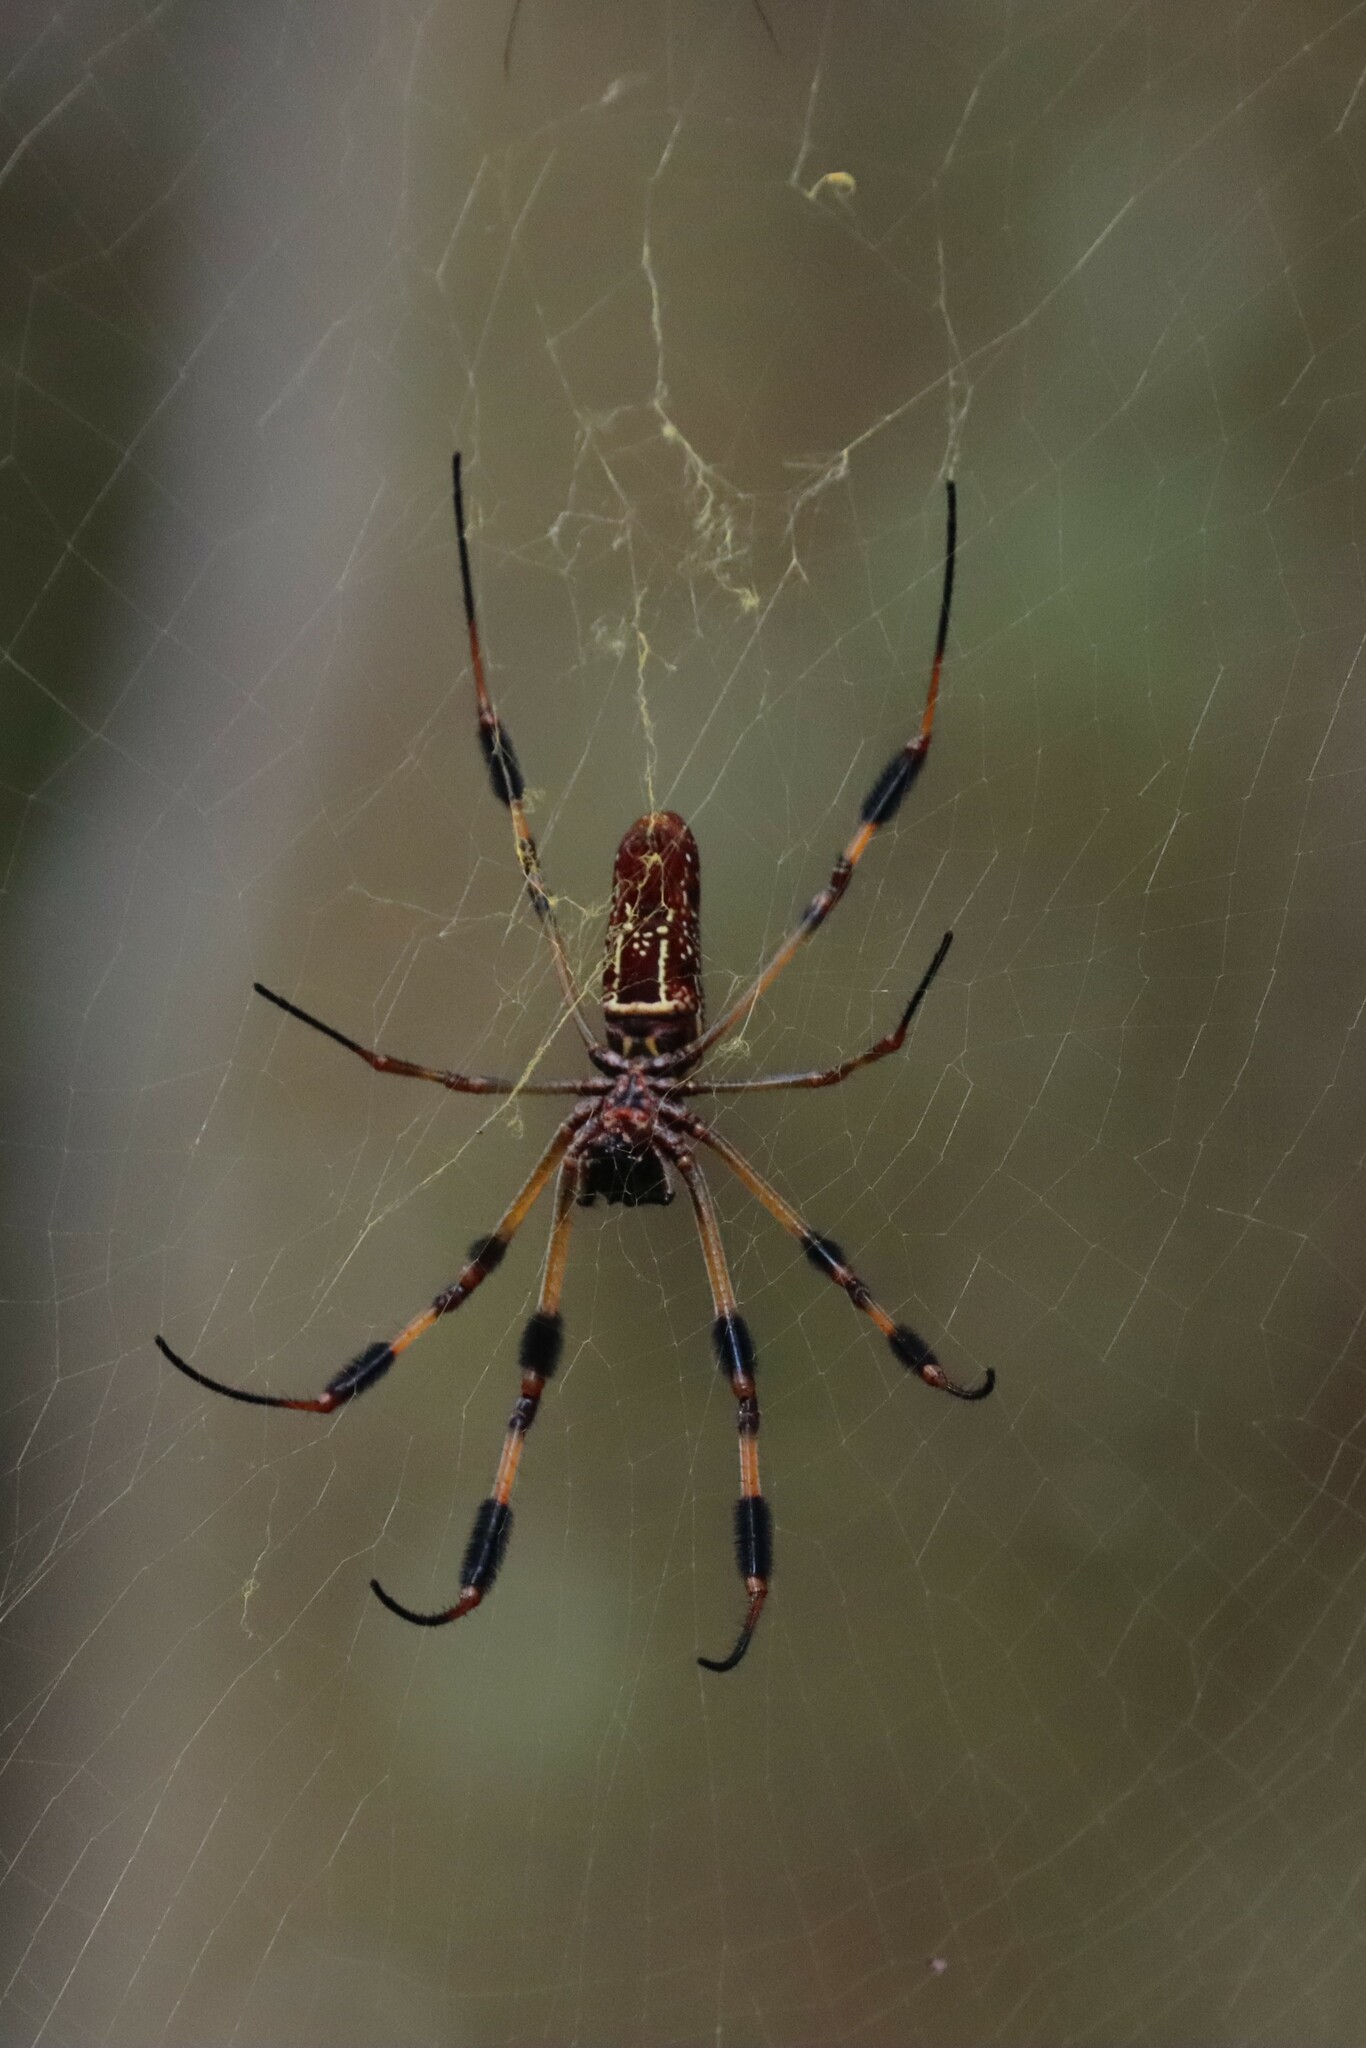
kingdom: Animalia
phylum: Arthropoda
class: Arachnida
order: Araneae
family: Araneidae
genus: Trichonephila
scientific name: Trichonephila clavipes
